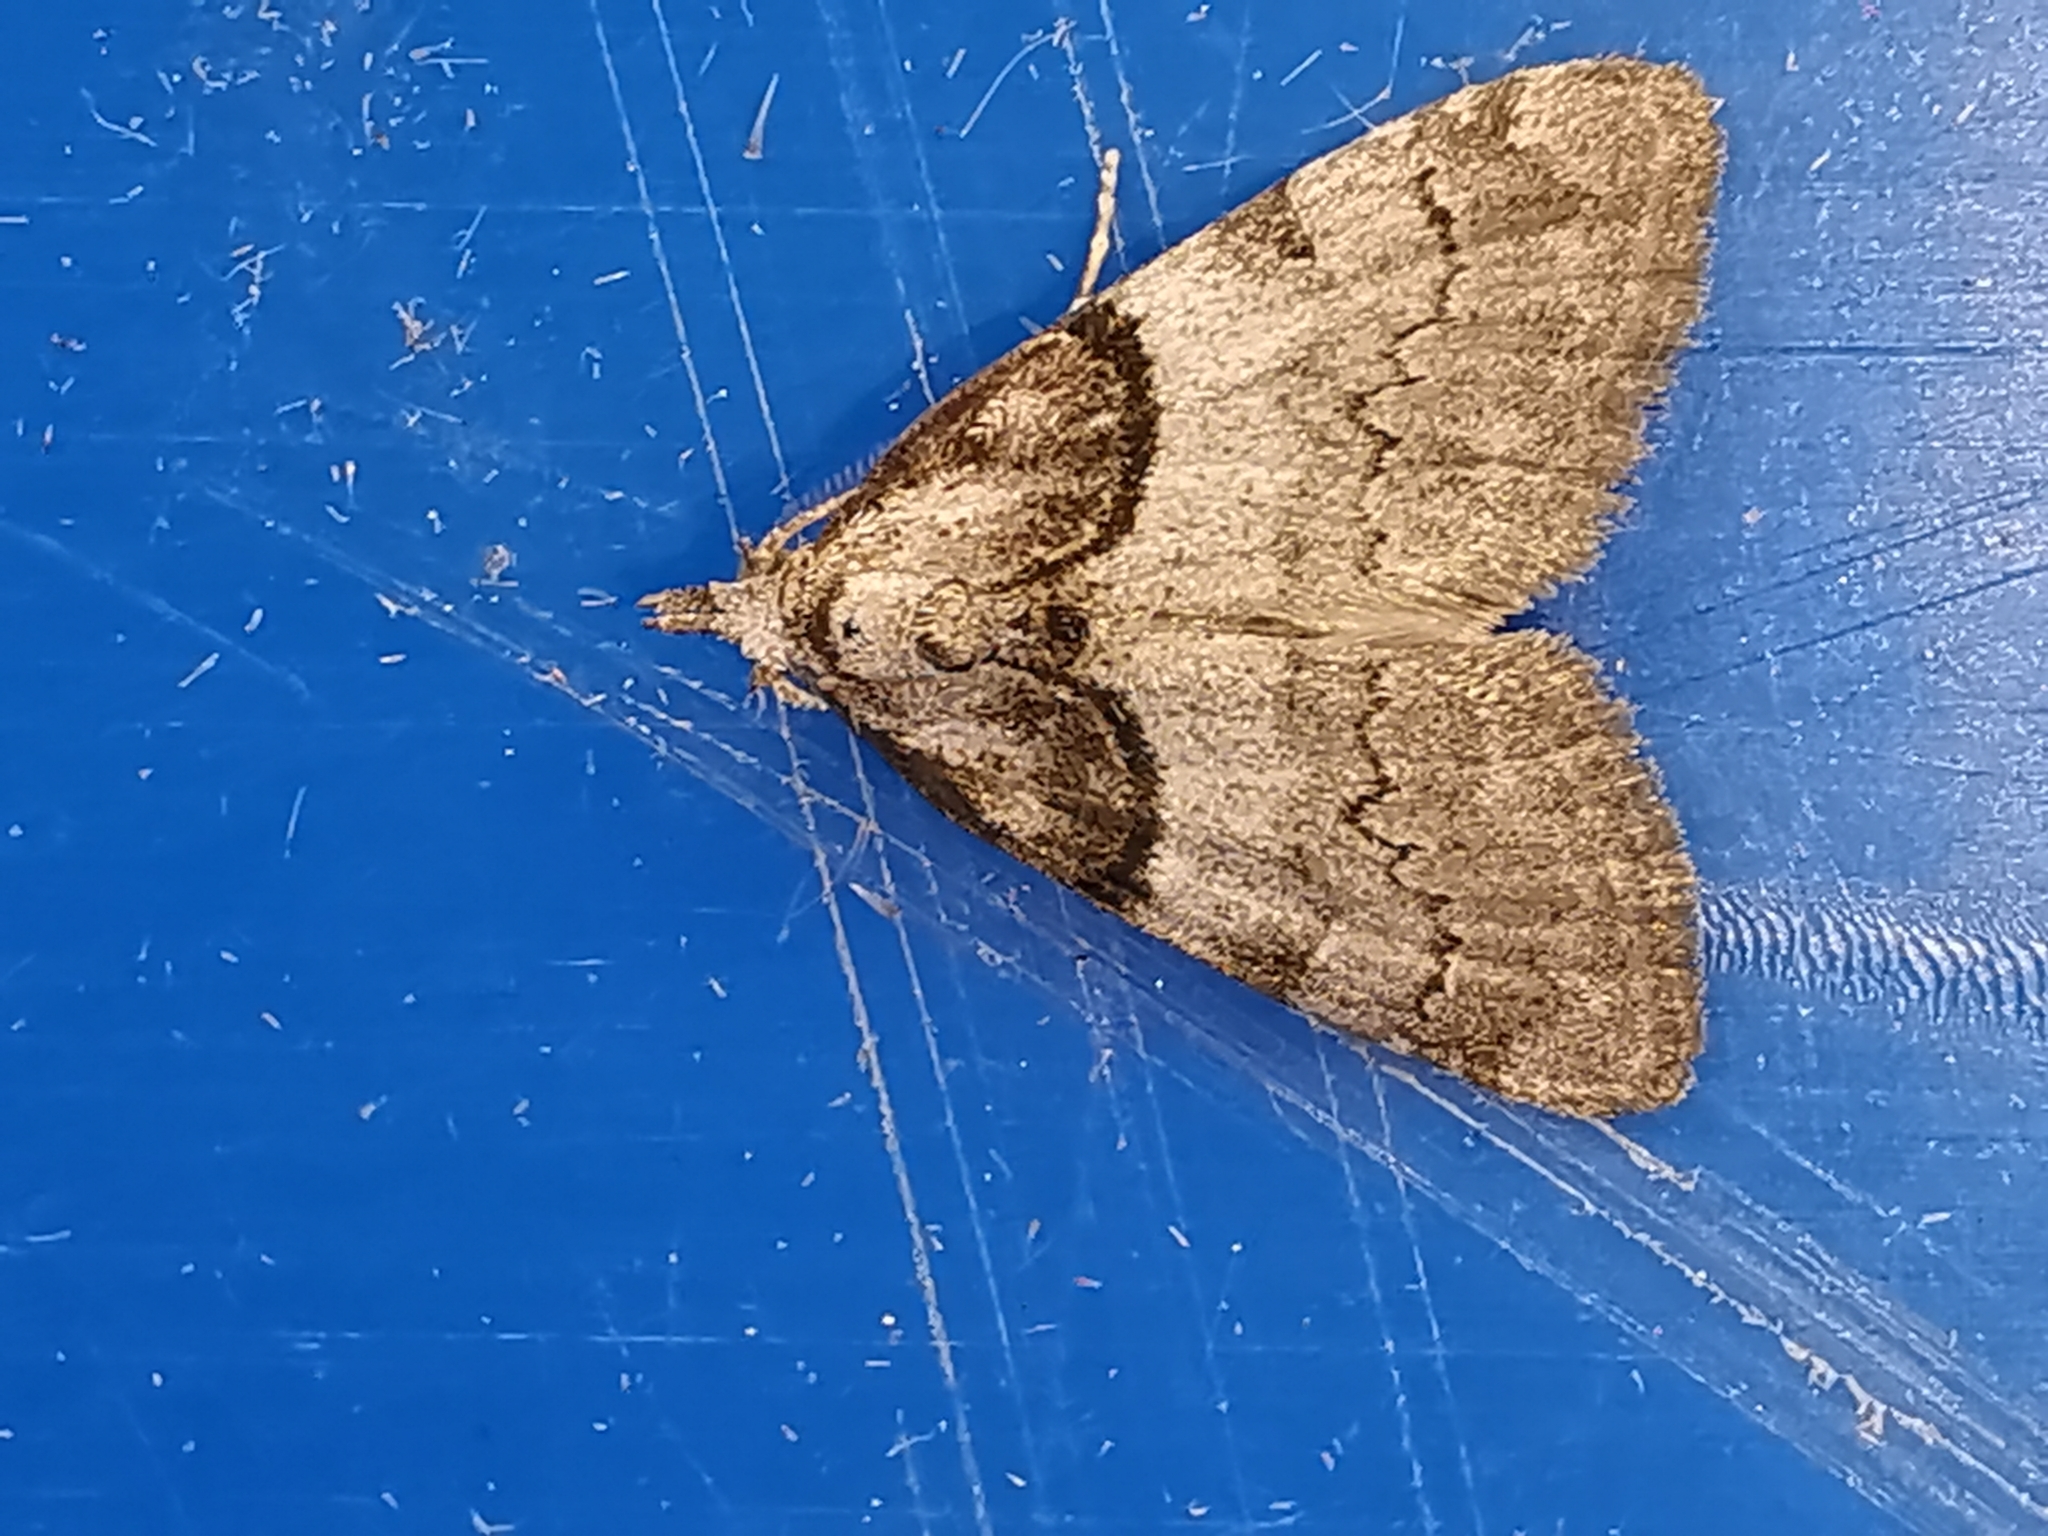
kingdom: Animalia
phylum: Arthropoda
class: Insecta
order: Lepidoptera
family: Nolidae
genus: Nola
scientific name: Nola cucullatella
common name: Short-cloaked moth
